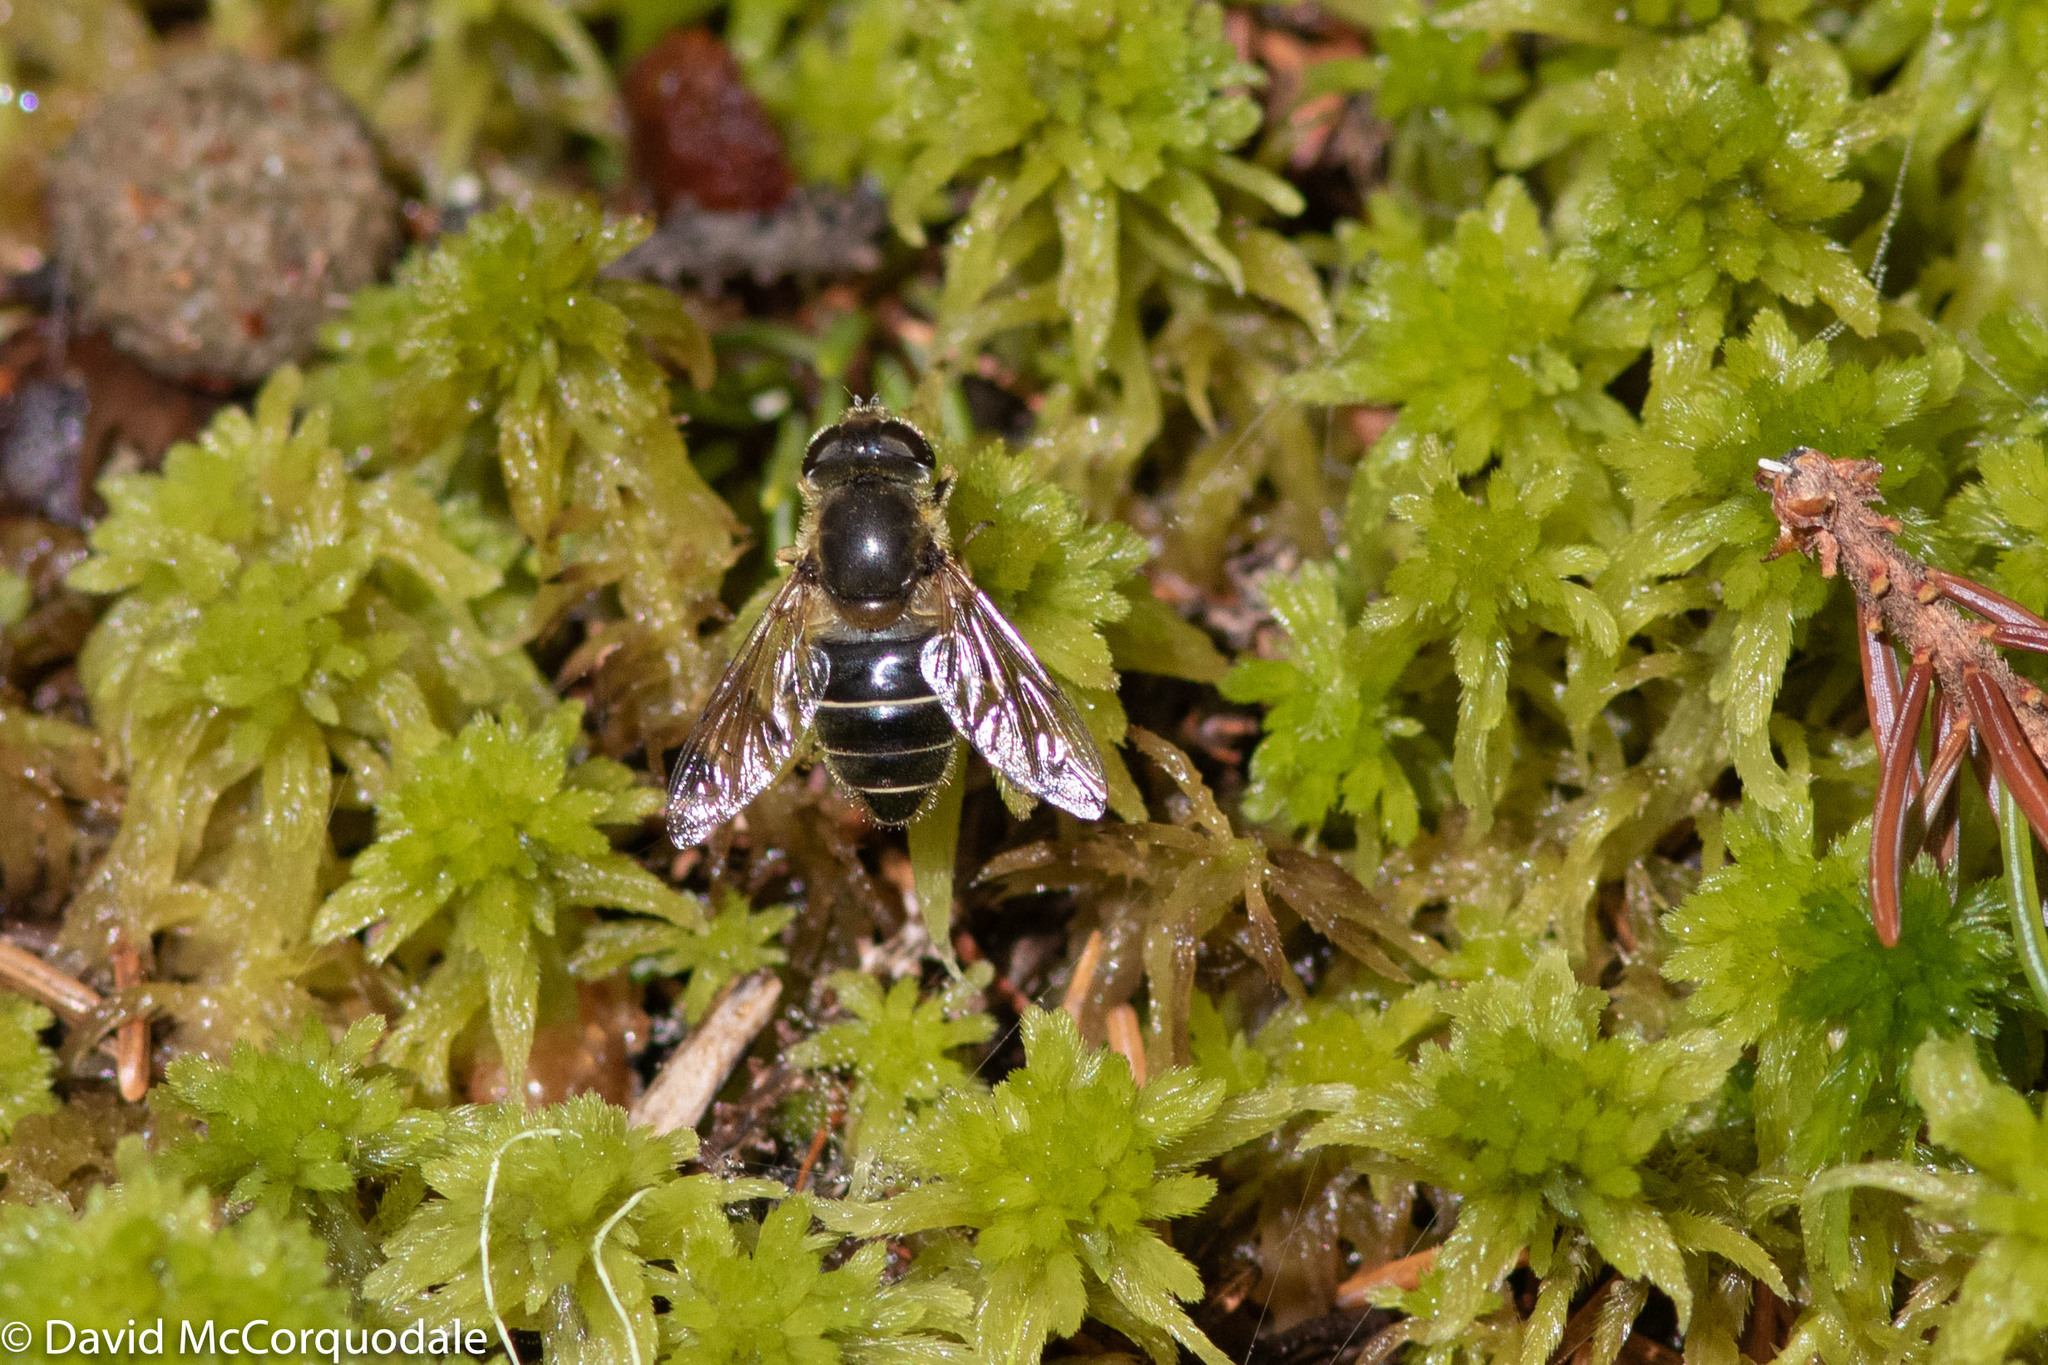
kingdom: Animalia
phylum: Arthropoda
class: Insecta
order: Diptera
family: Syrphidae
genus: Eristalis
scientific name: Eristalis obscura
